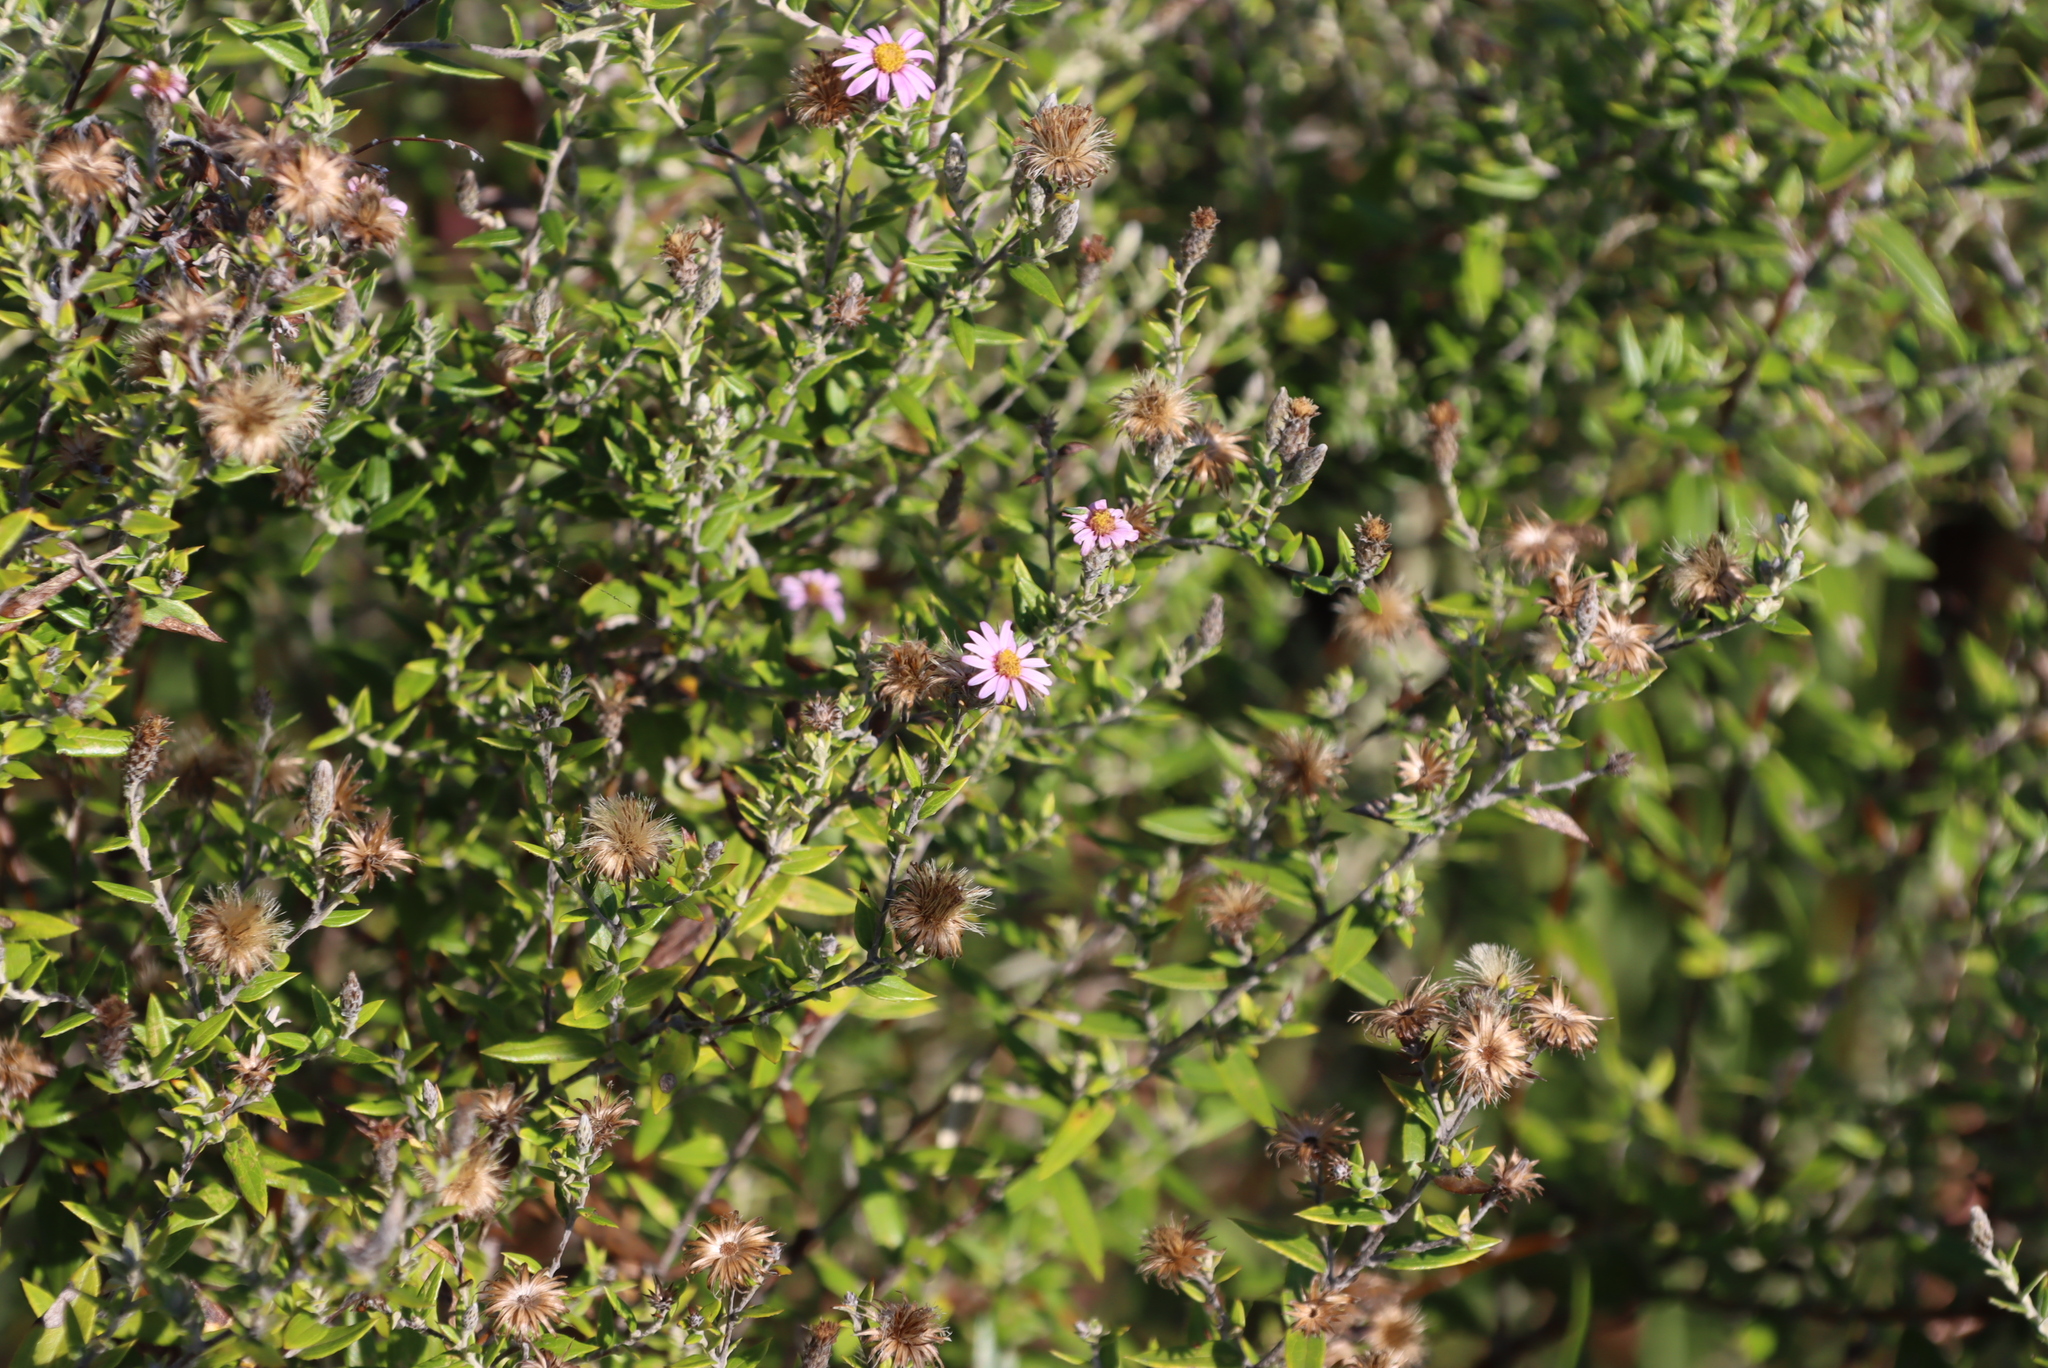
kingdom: Plantae
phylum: Tracheophyta
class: Magnoliopsida
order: Asterales
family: Asteraceae
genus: Athrixia
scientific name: Athrixia phylicoides
